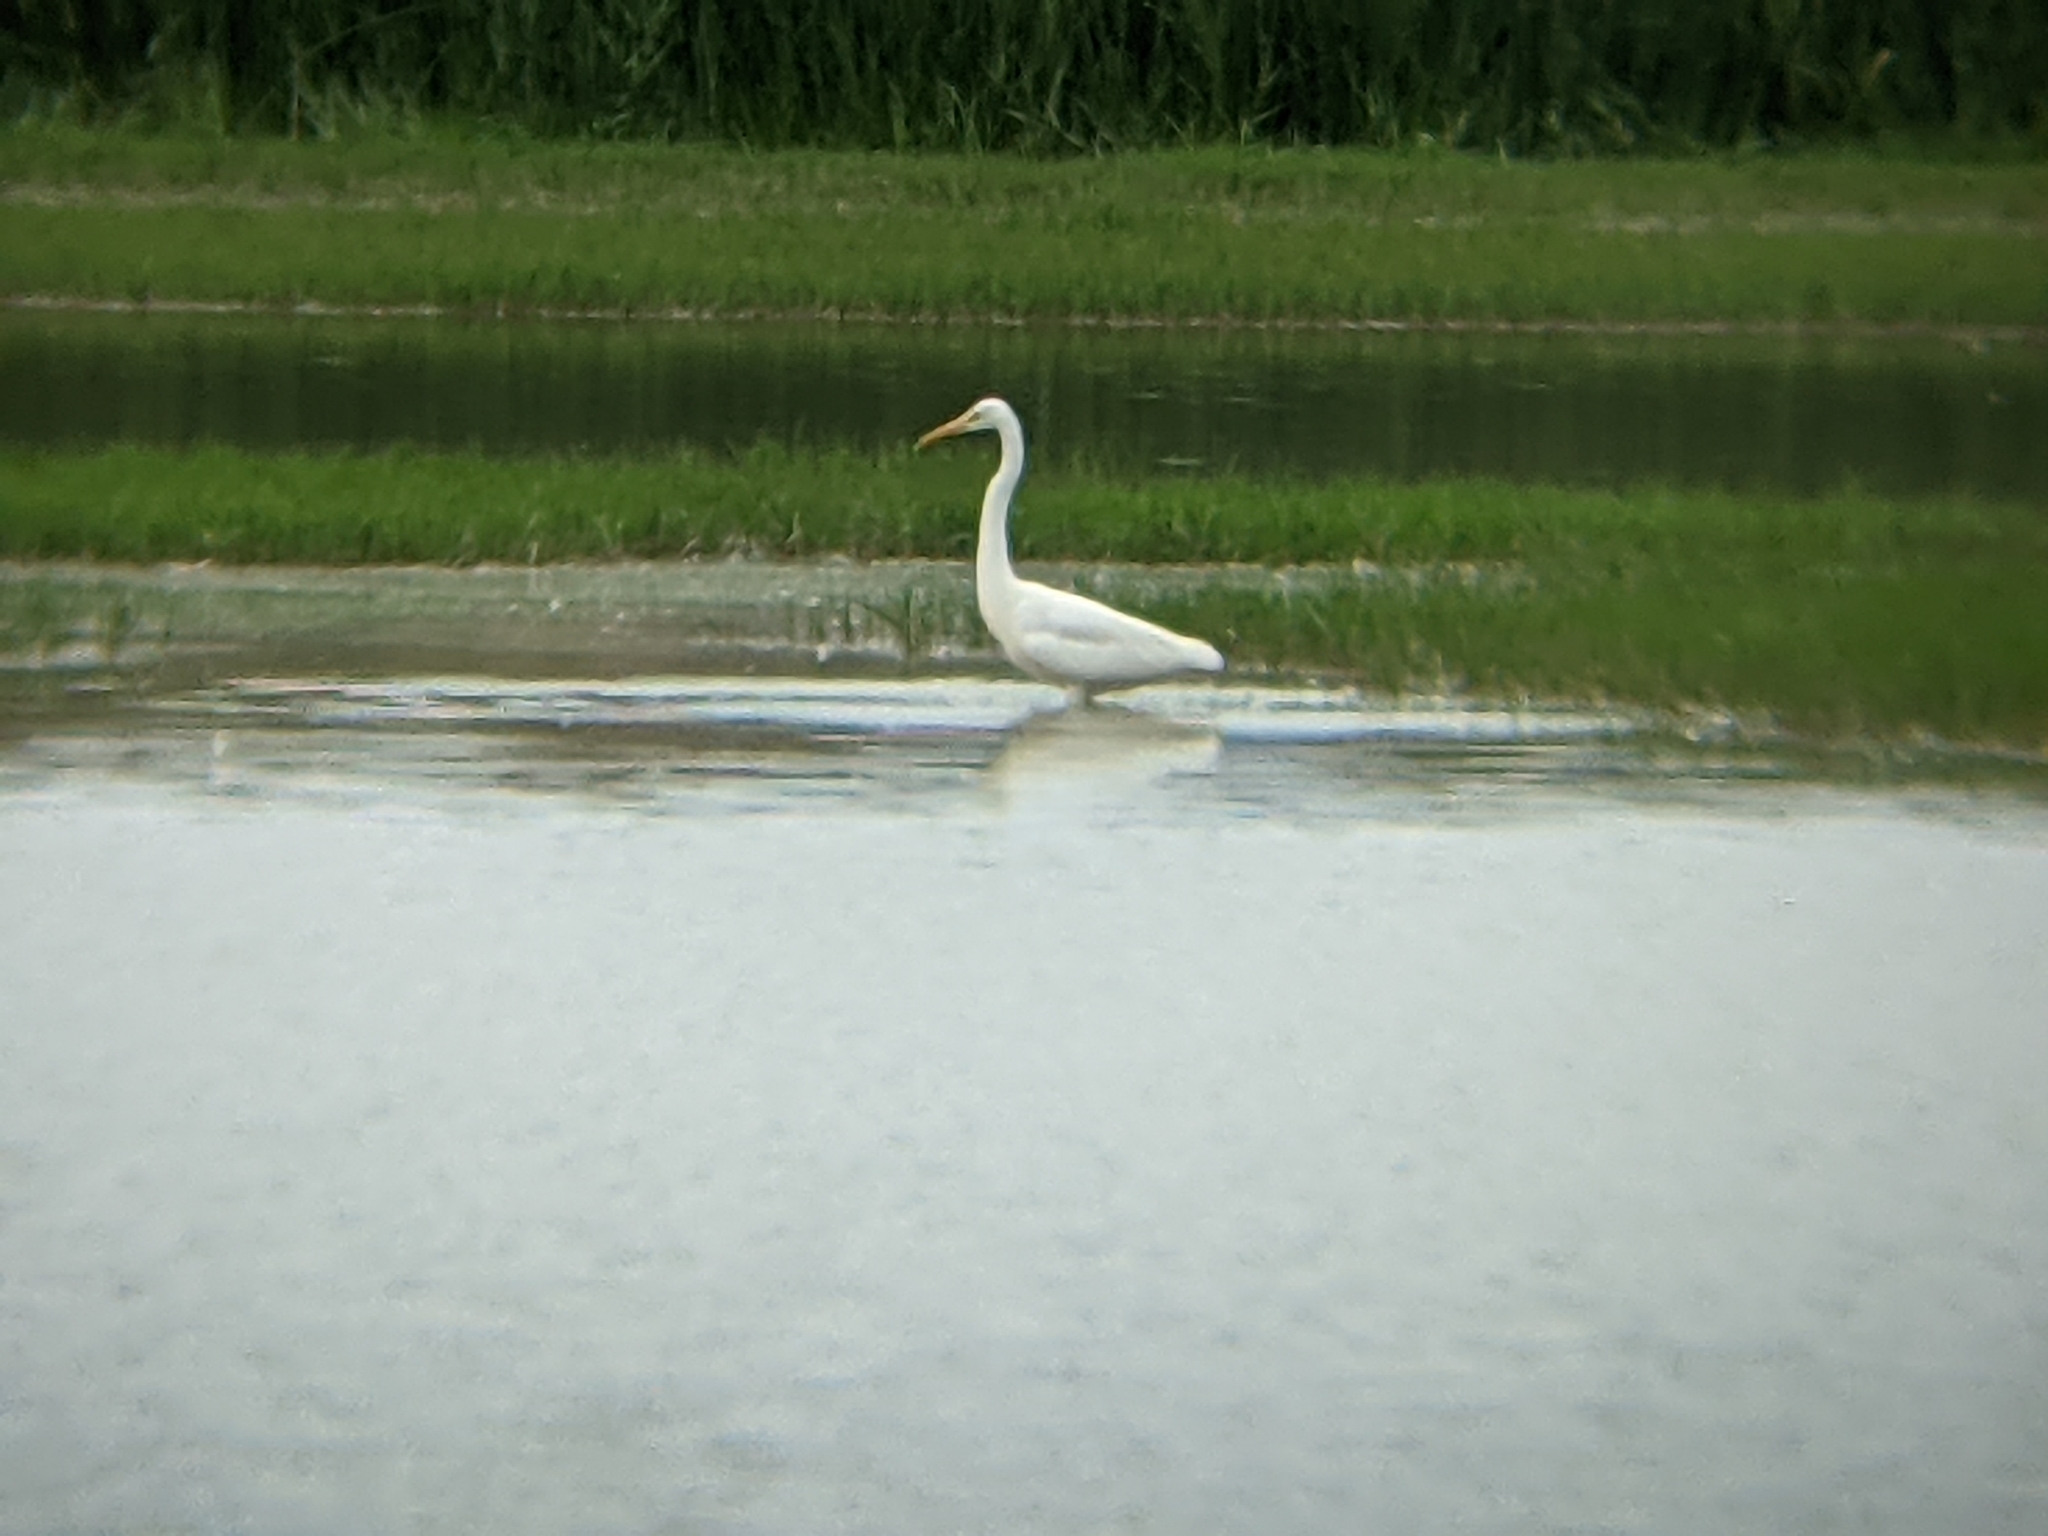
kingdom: Animalia
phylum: Chordata
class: Aves
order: Pelecaniformes
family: Ardeidae
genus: Ardea
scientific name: Ardea alba
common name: Great egret
